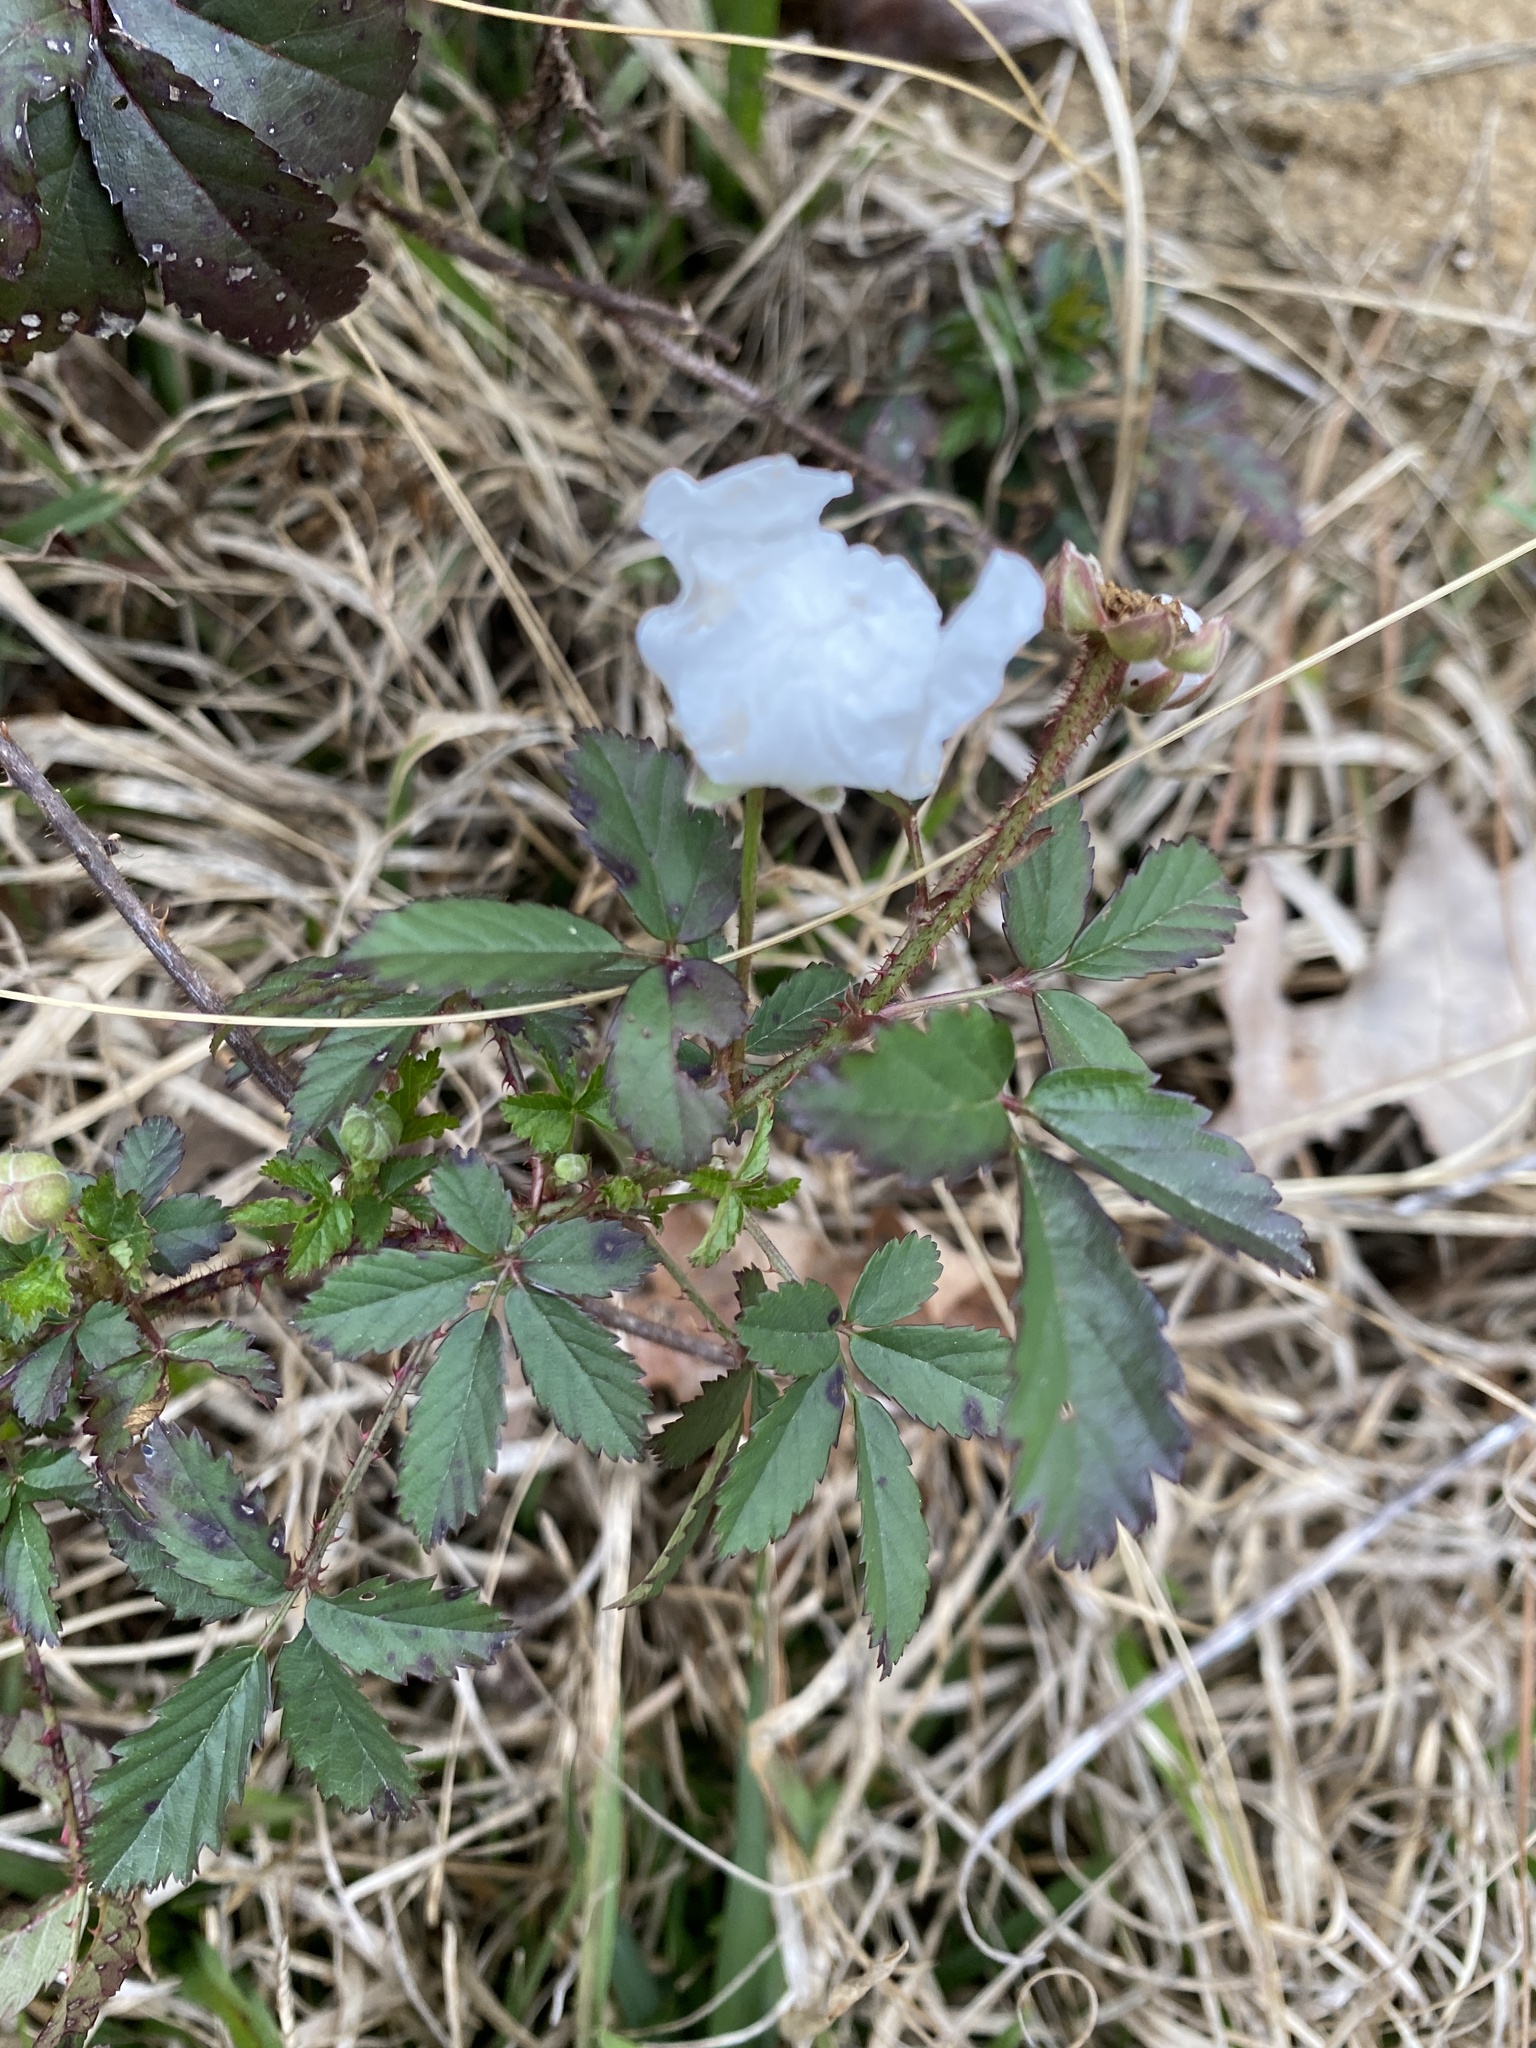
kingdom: Plantae
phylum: Tracheophyta
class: Magnoliopsida
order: Rosales
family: Rosaceae
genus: Rubus
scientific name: Rubus trivialis
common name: Southern dewberry
